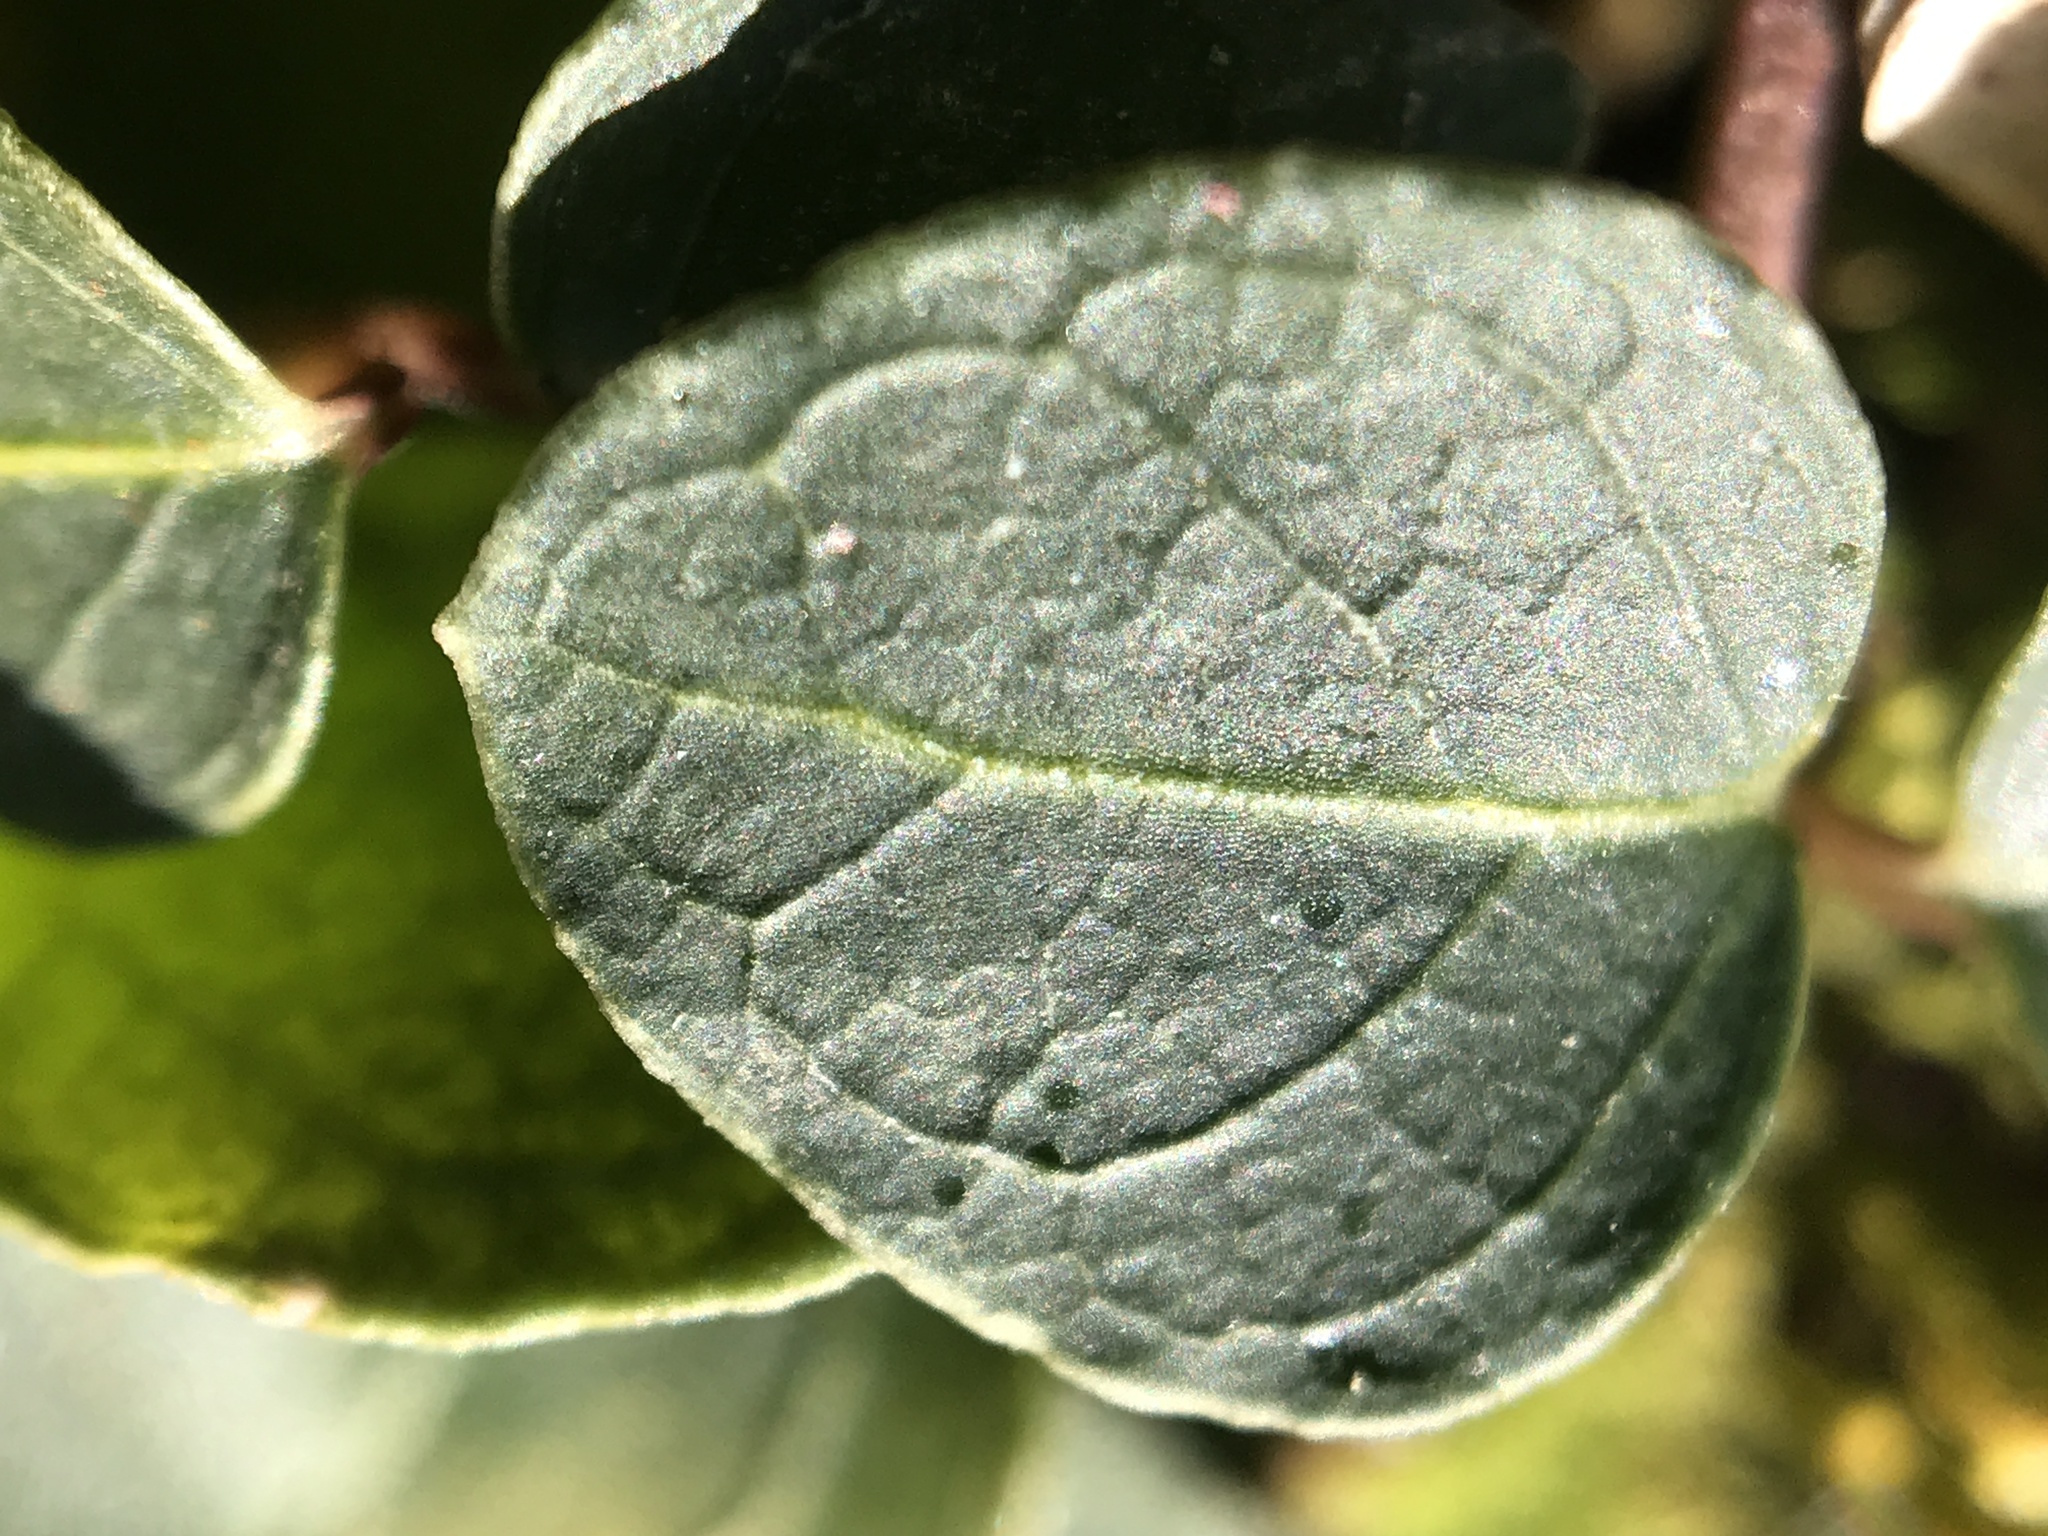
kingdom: Plantae
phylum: Tracheophyta
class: Magnoliopsida
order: Gentianales
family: Rubiaceae
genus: Mitchella
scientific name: Mitchella repens
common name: Partridge-berry
